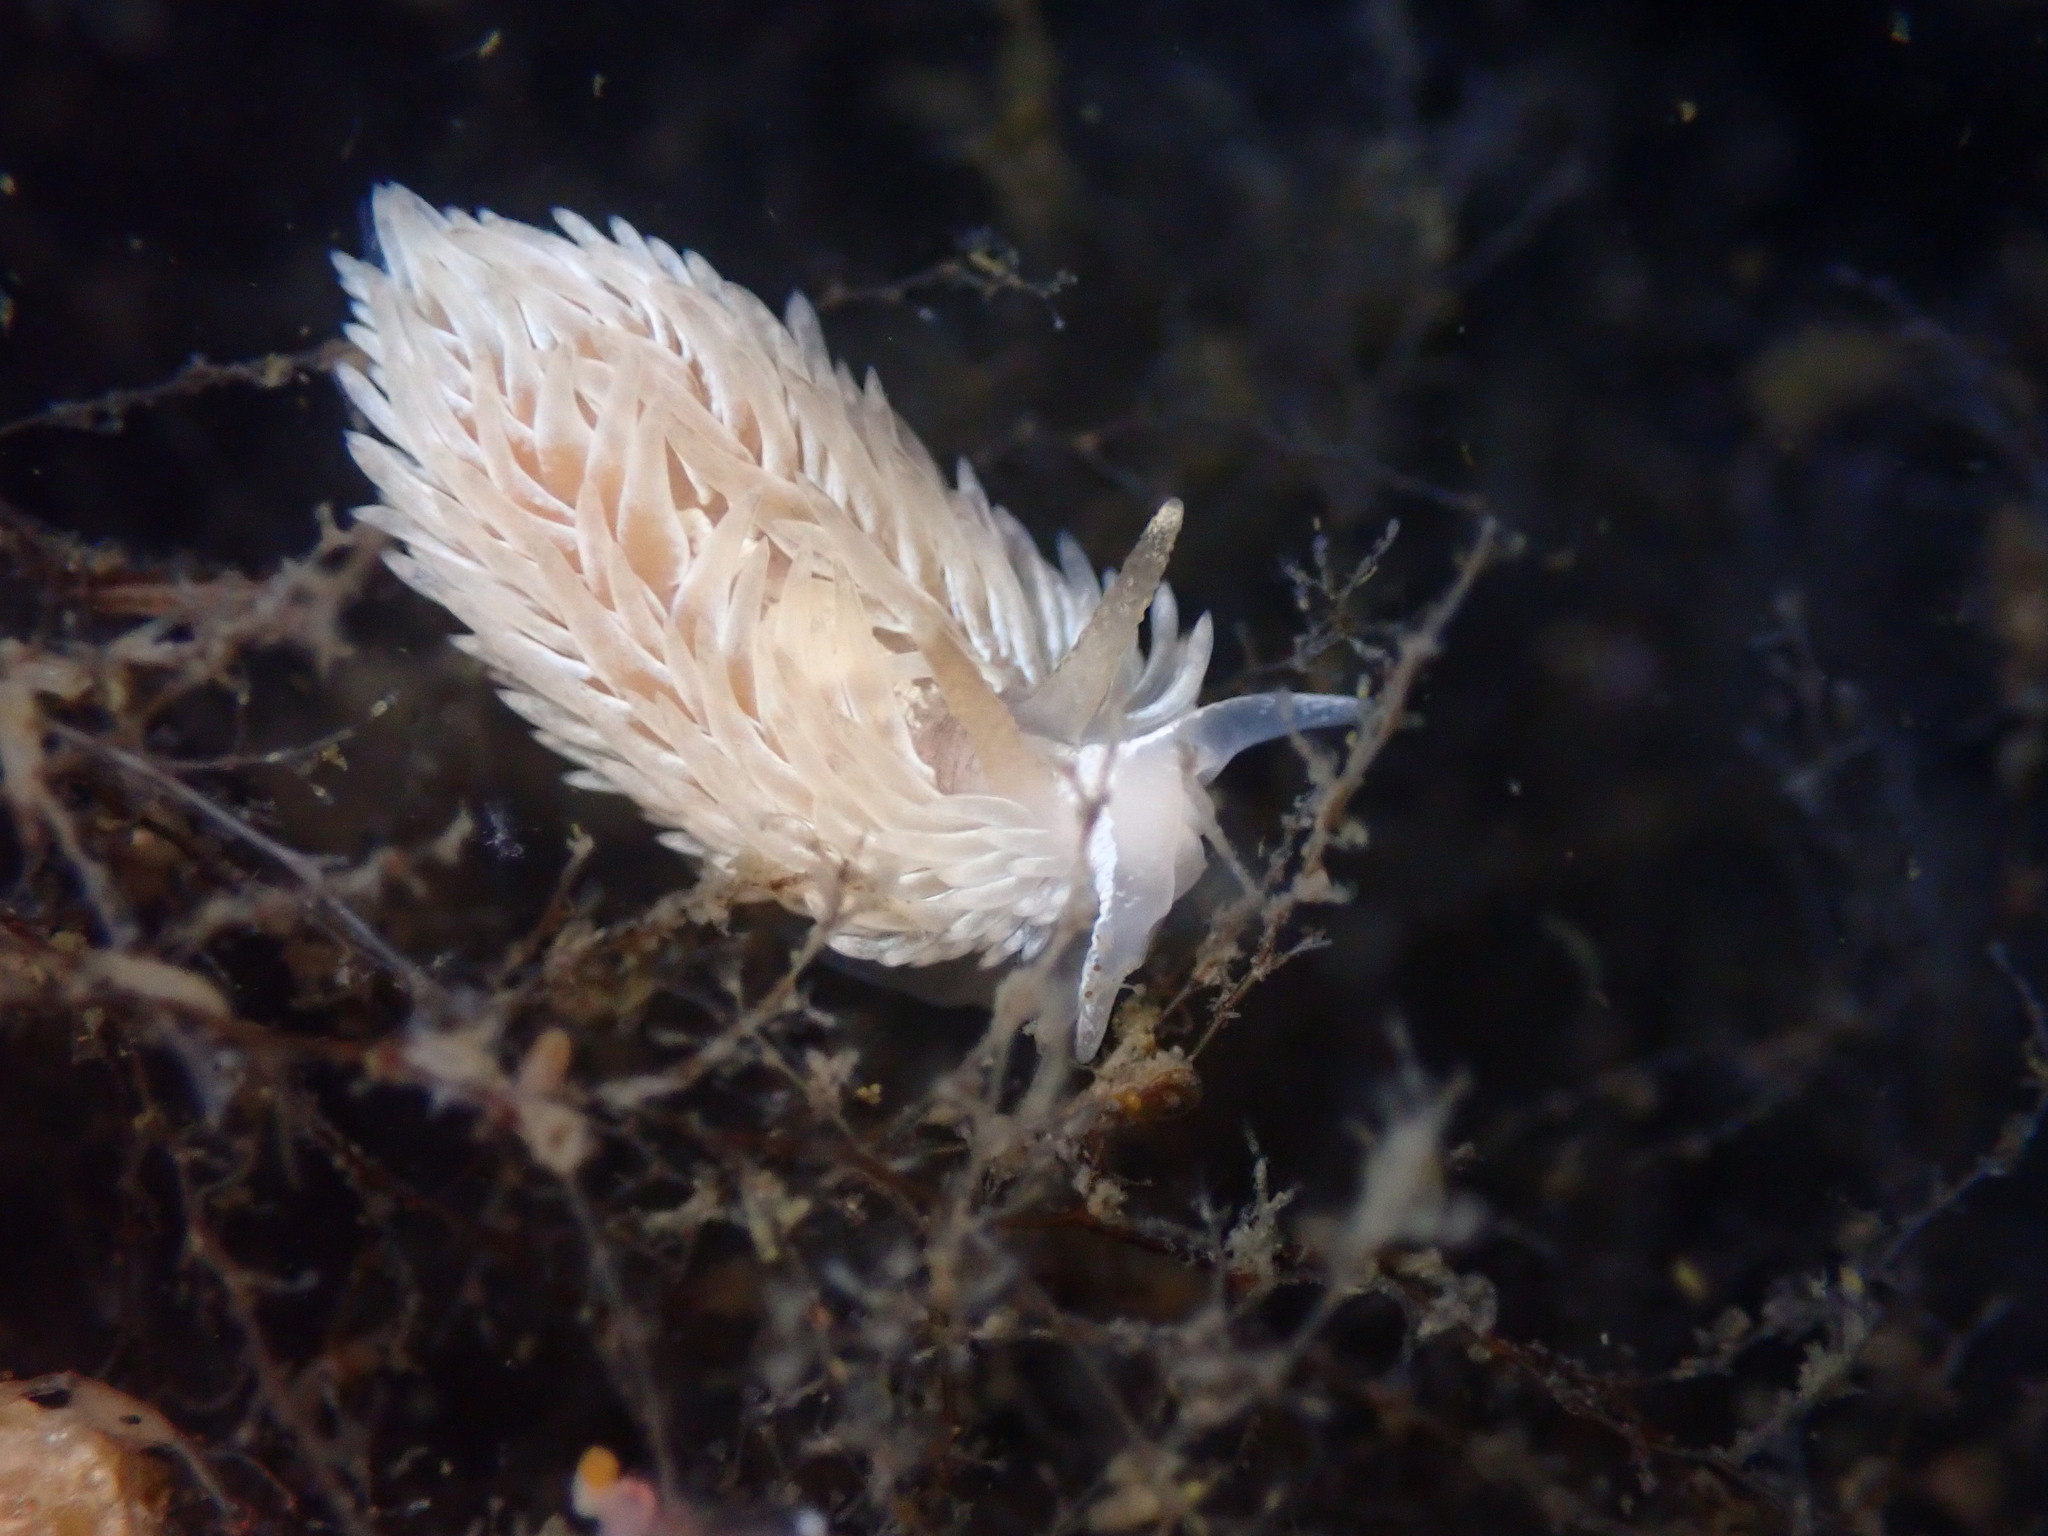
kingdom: Animalia
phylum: Mollusca
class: Gastropoda
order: Nudibranchia
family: Aeolidiidae
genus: Aeolidia
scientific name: Aeolidia loui
